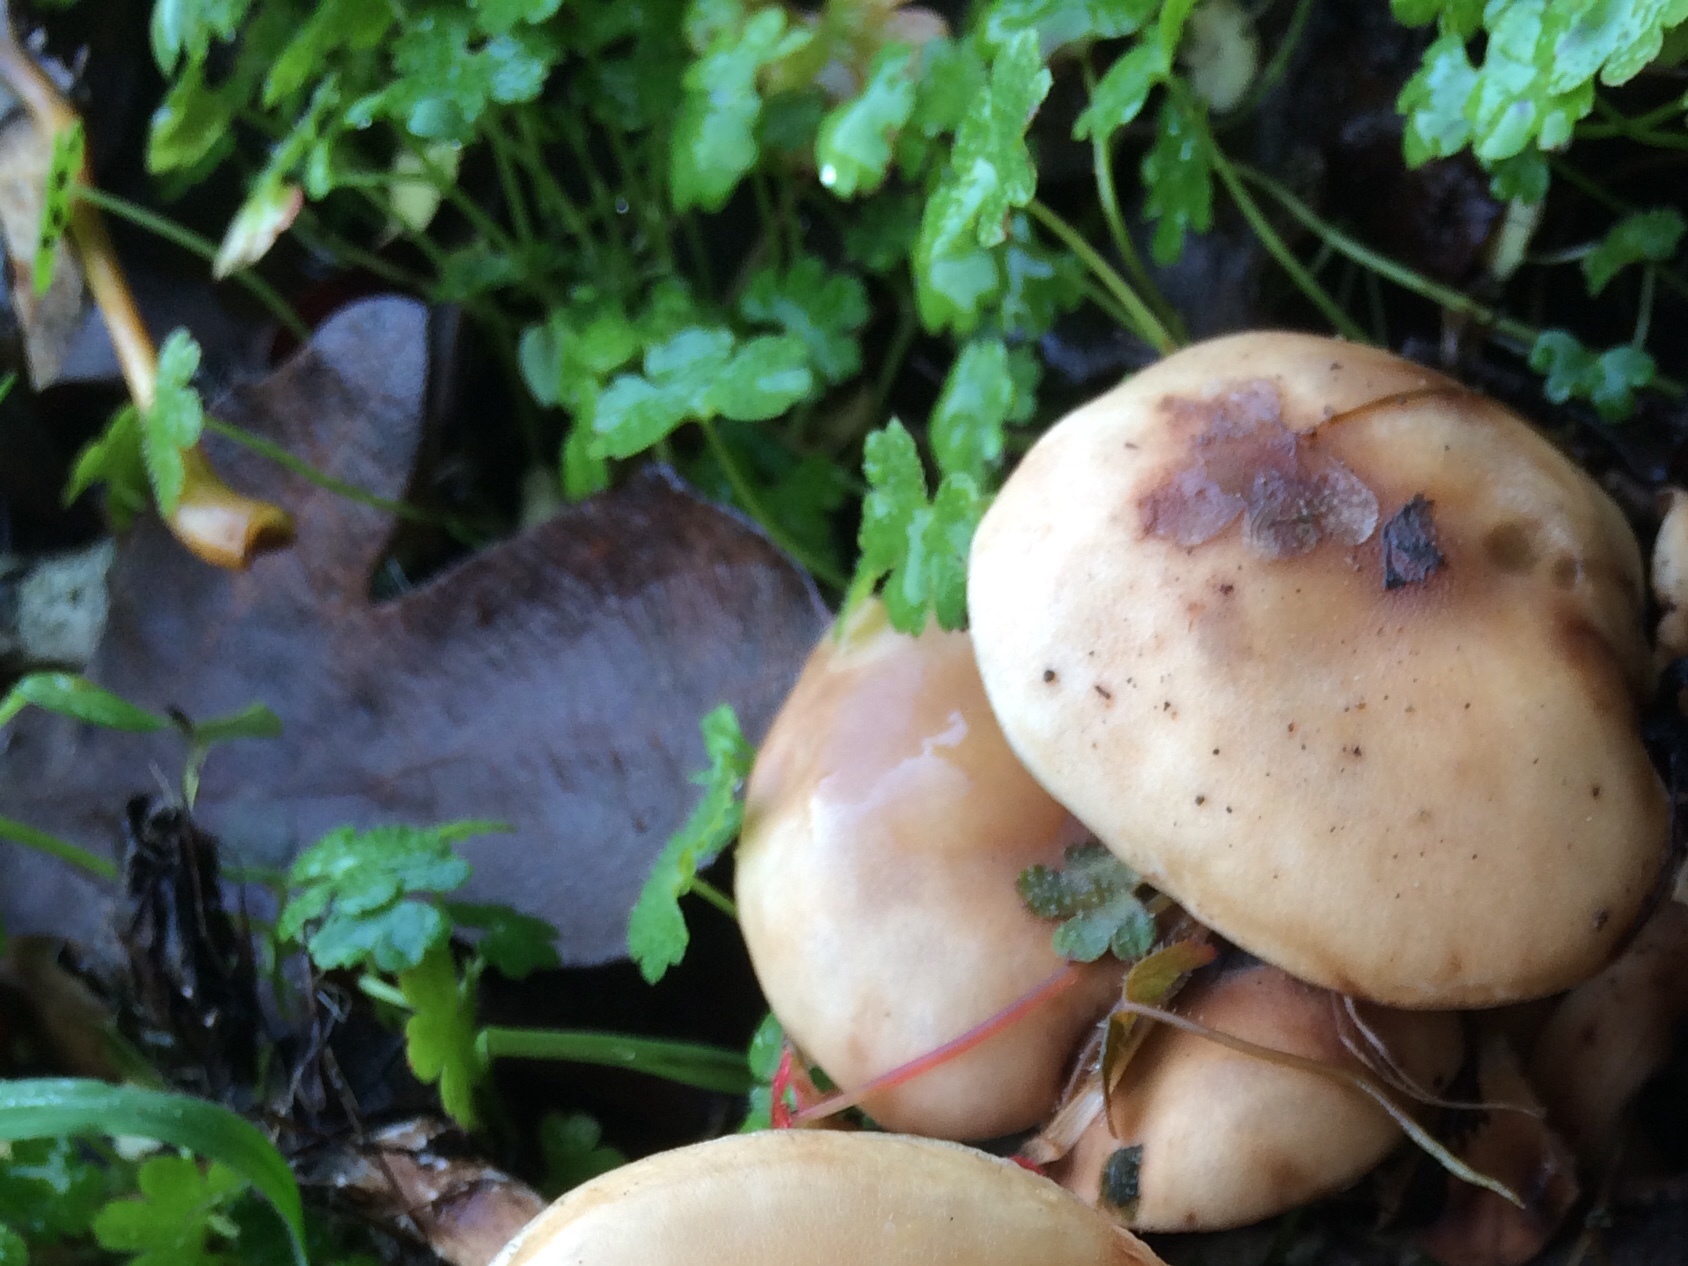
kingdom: Plantae
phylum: Tracheophyta
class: Magnoliopsida
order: Geraniales
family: Geraniaceae
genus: Geranium
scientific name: Geranium lucidum
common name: Shining crane's-bill
